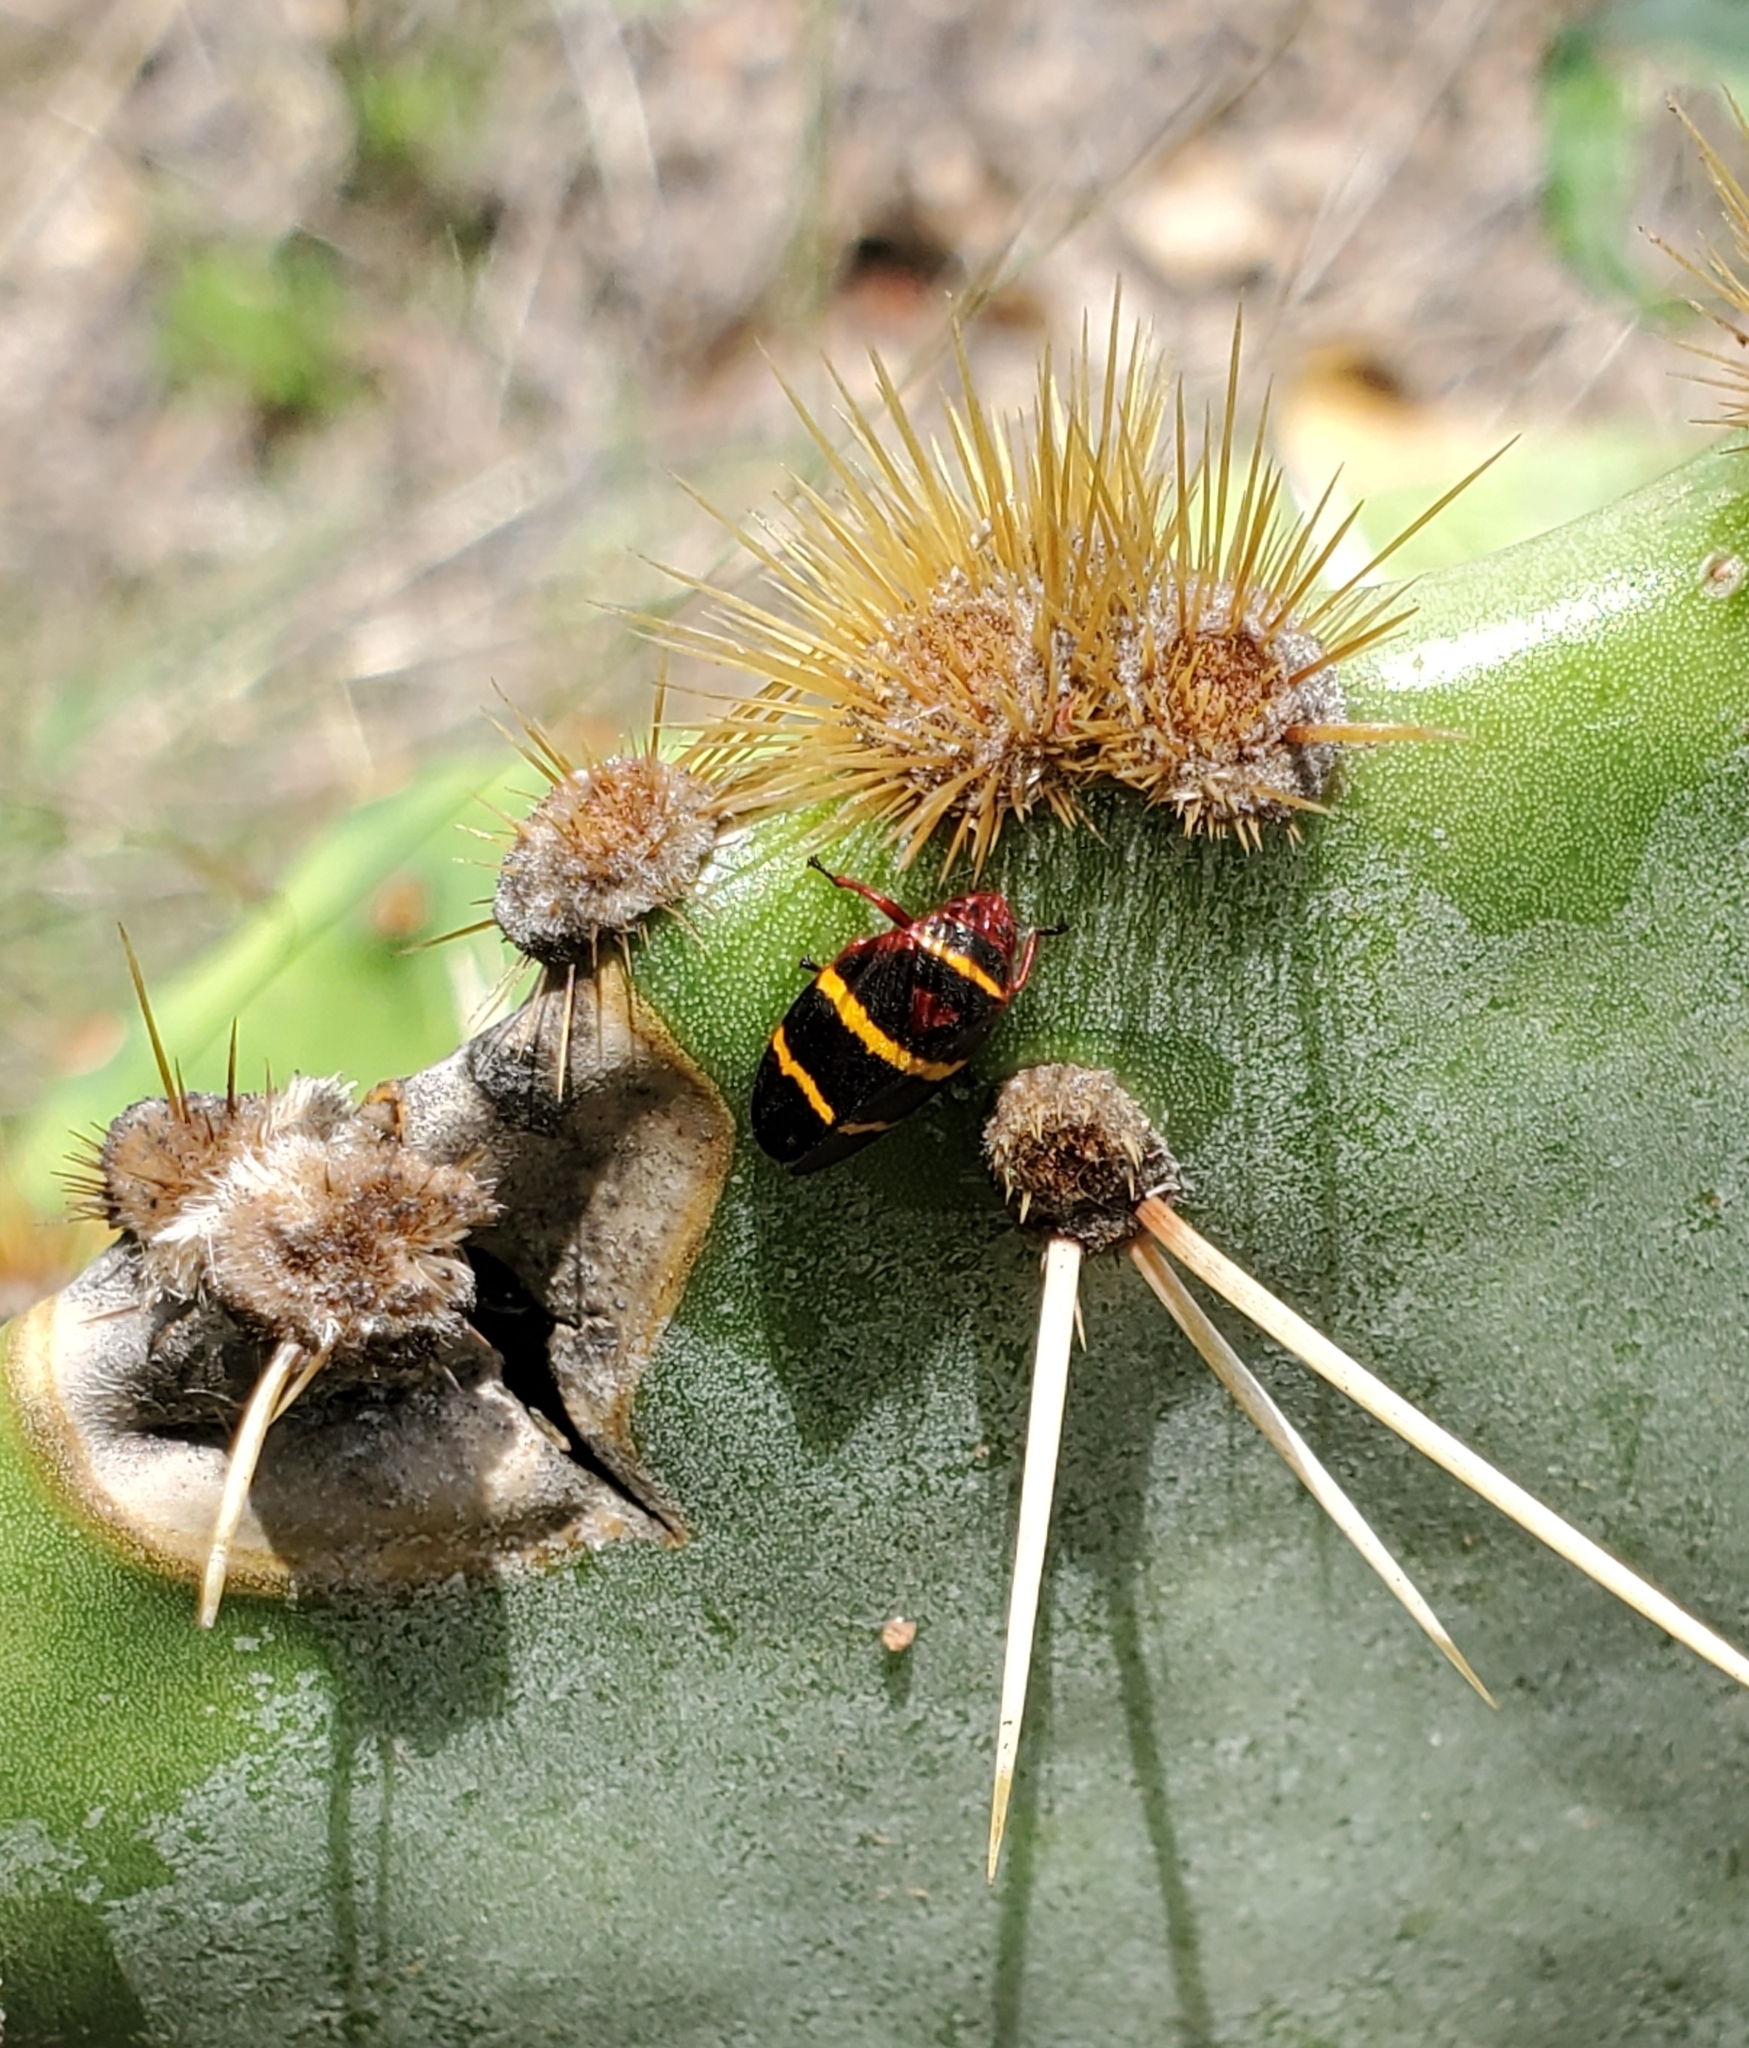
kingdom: Animalia
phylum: Arthropoda
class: Insecta
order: Hemiptera
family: Cercopidae
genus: Prosapia
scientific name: Prosapia bicincta
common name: Twolined spittlebug
